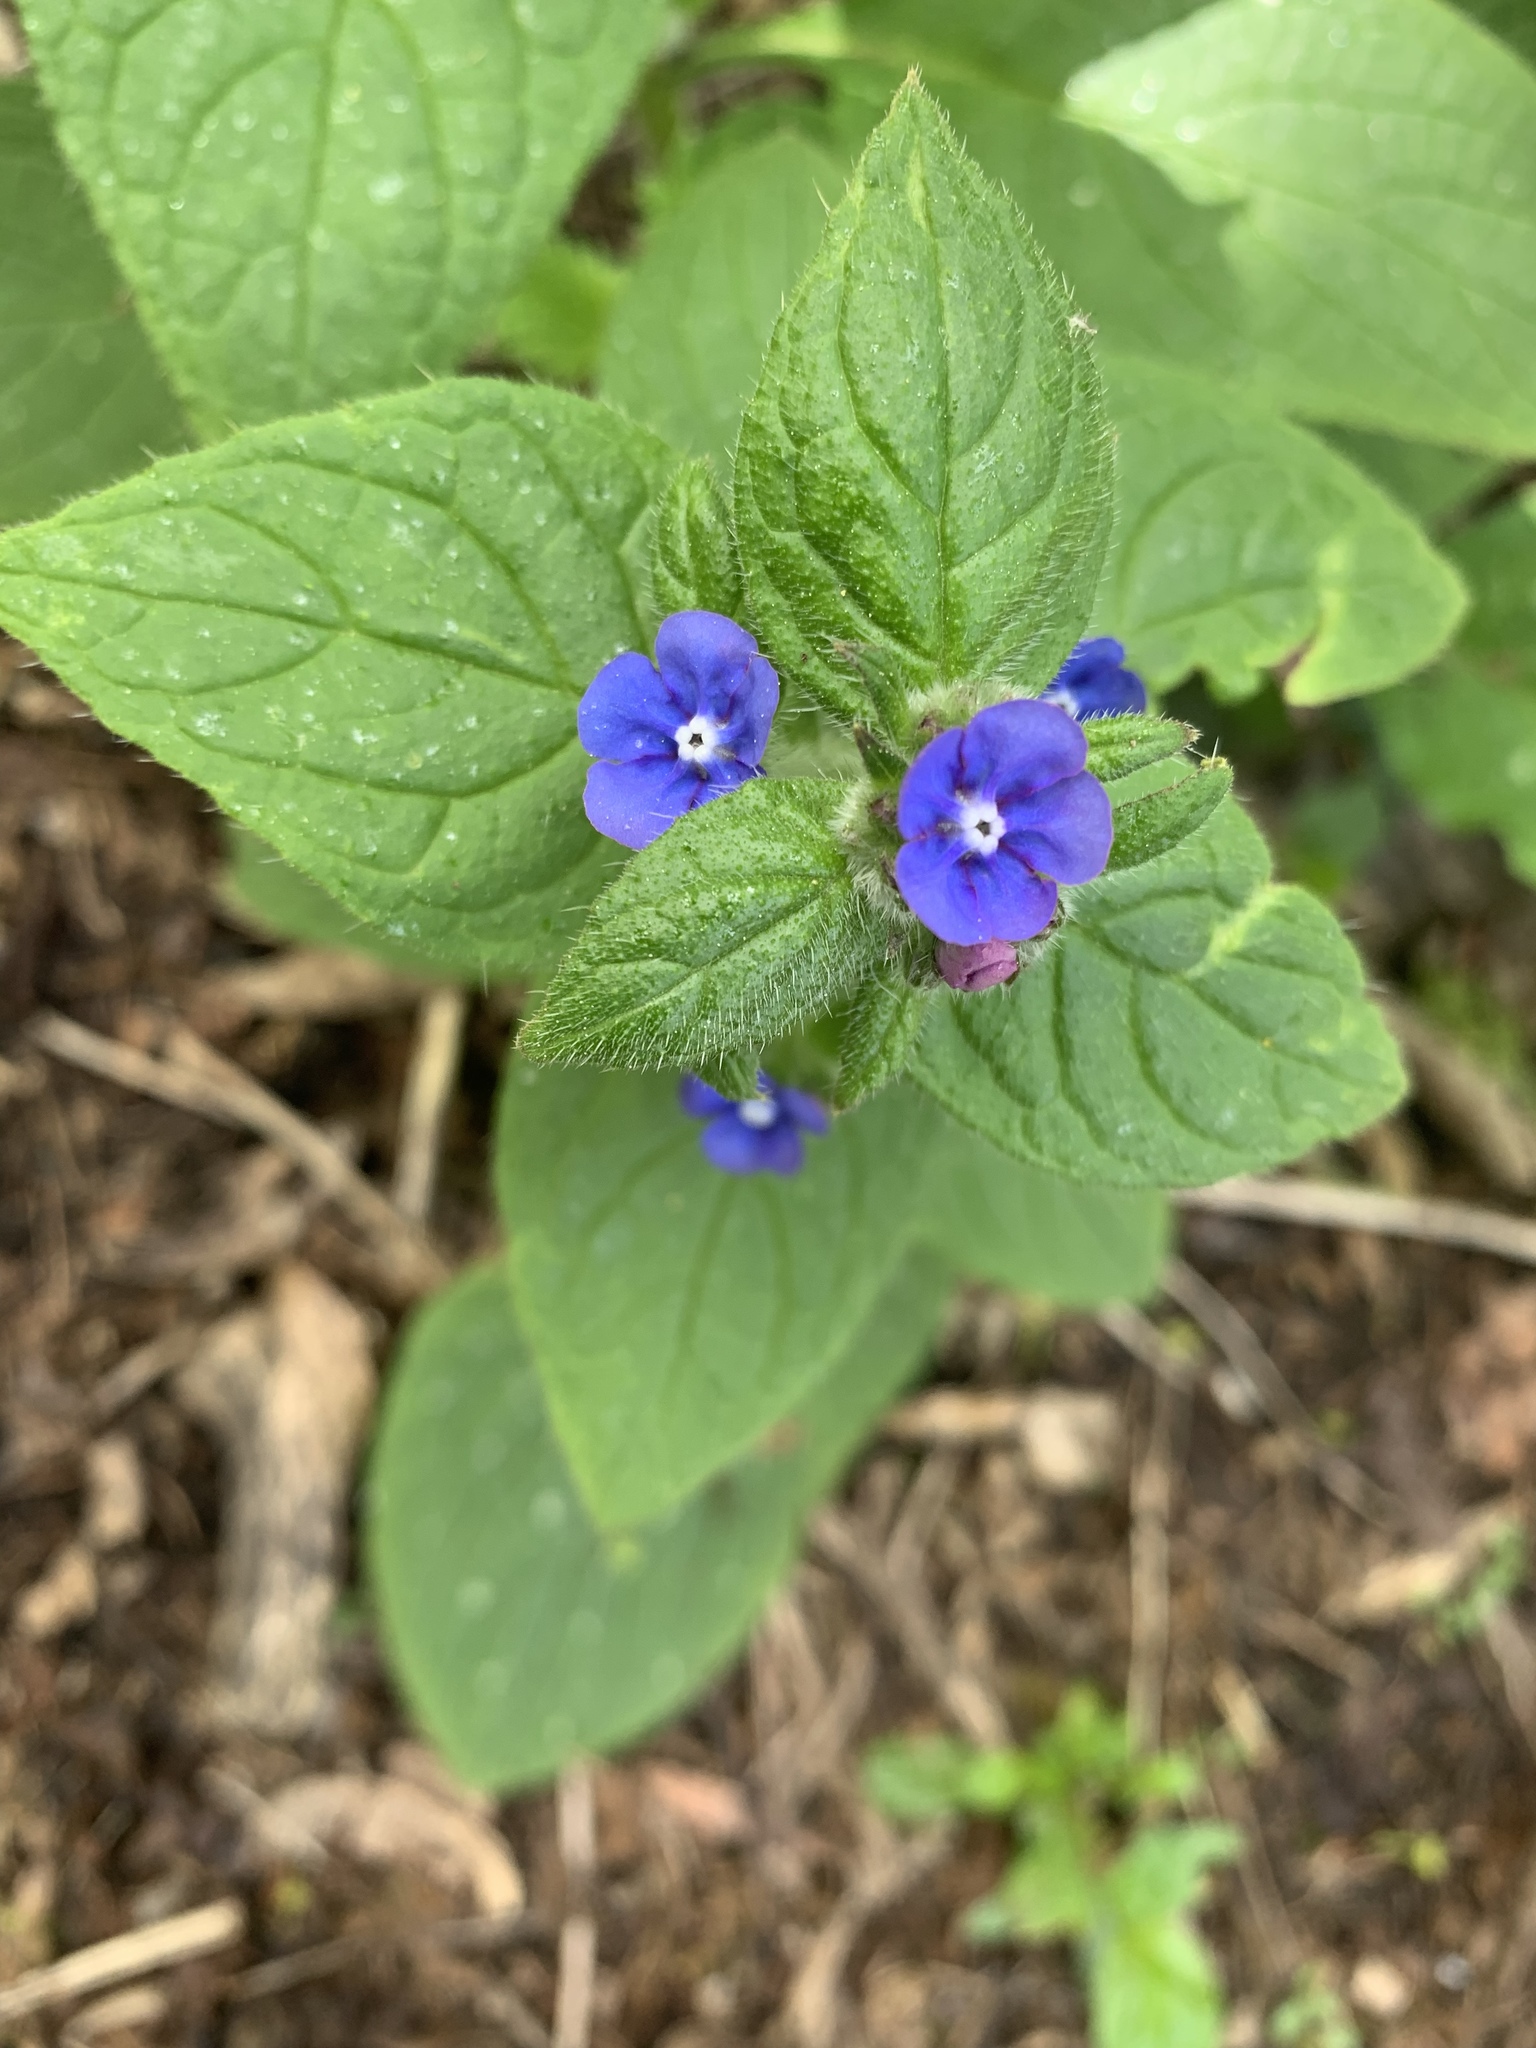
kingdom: Plantae
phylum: Tracheophyta
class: Magnoliopsida
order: Boraginales
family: Boraginaceae
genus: Pentaglottis
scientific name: Pentaglottis sempervirens
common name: Green alkanet
